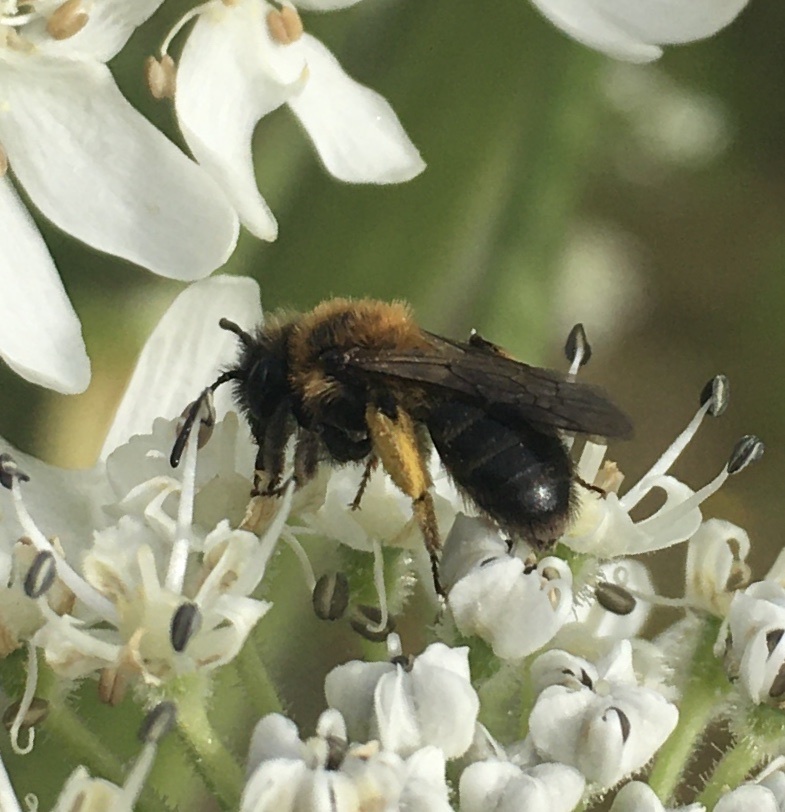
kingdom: Animalia
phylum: Arthropoda
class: Insecta
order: Hymenoptera
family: Andrenidae
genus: Andrena
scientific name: Andrena bicolor
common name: Gwynne's mining bee
